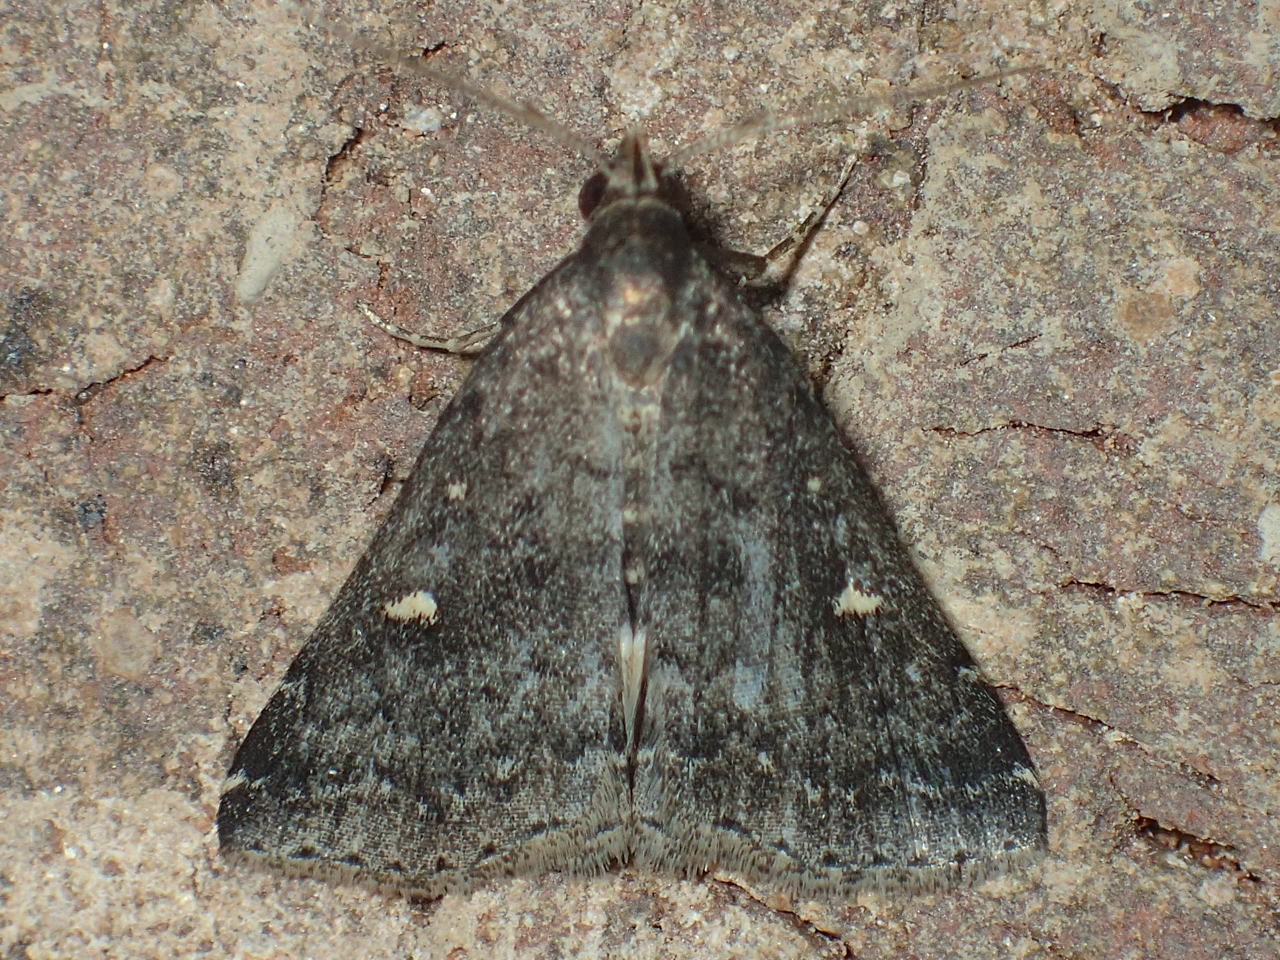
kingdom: Animalia
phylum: Arthropoda
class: Insecta
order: Lepidoptera
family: Erebidae
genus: Tetanolita
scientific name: Tetanolita mynesalis
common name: Smoky tetanolita moth
